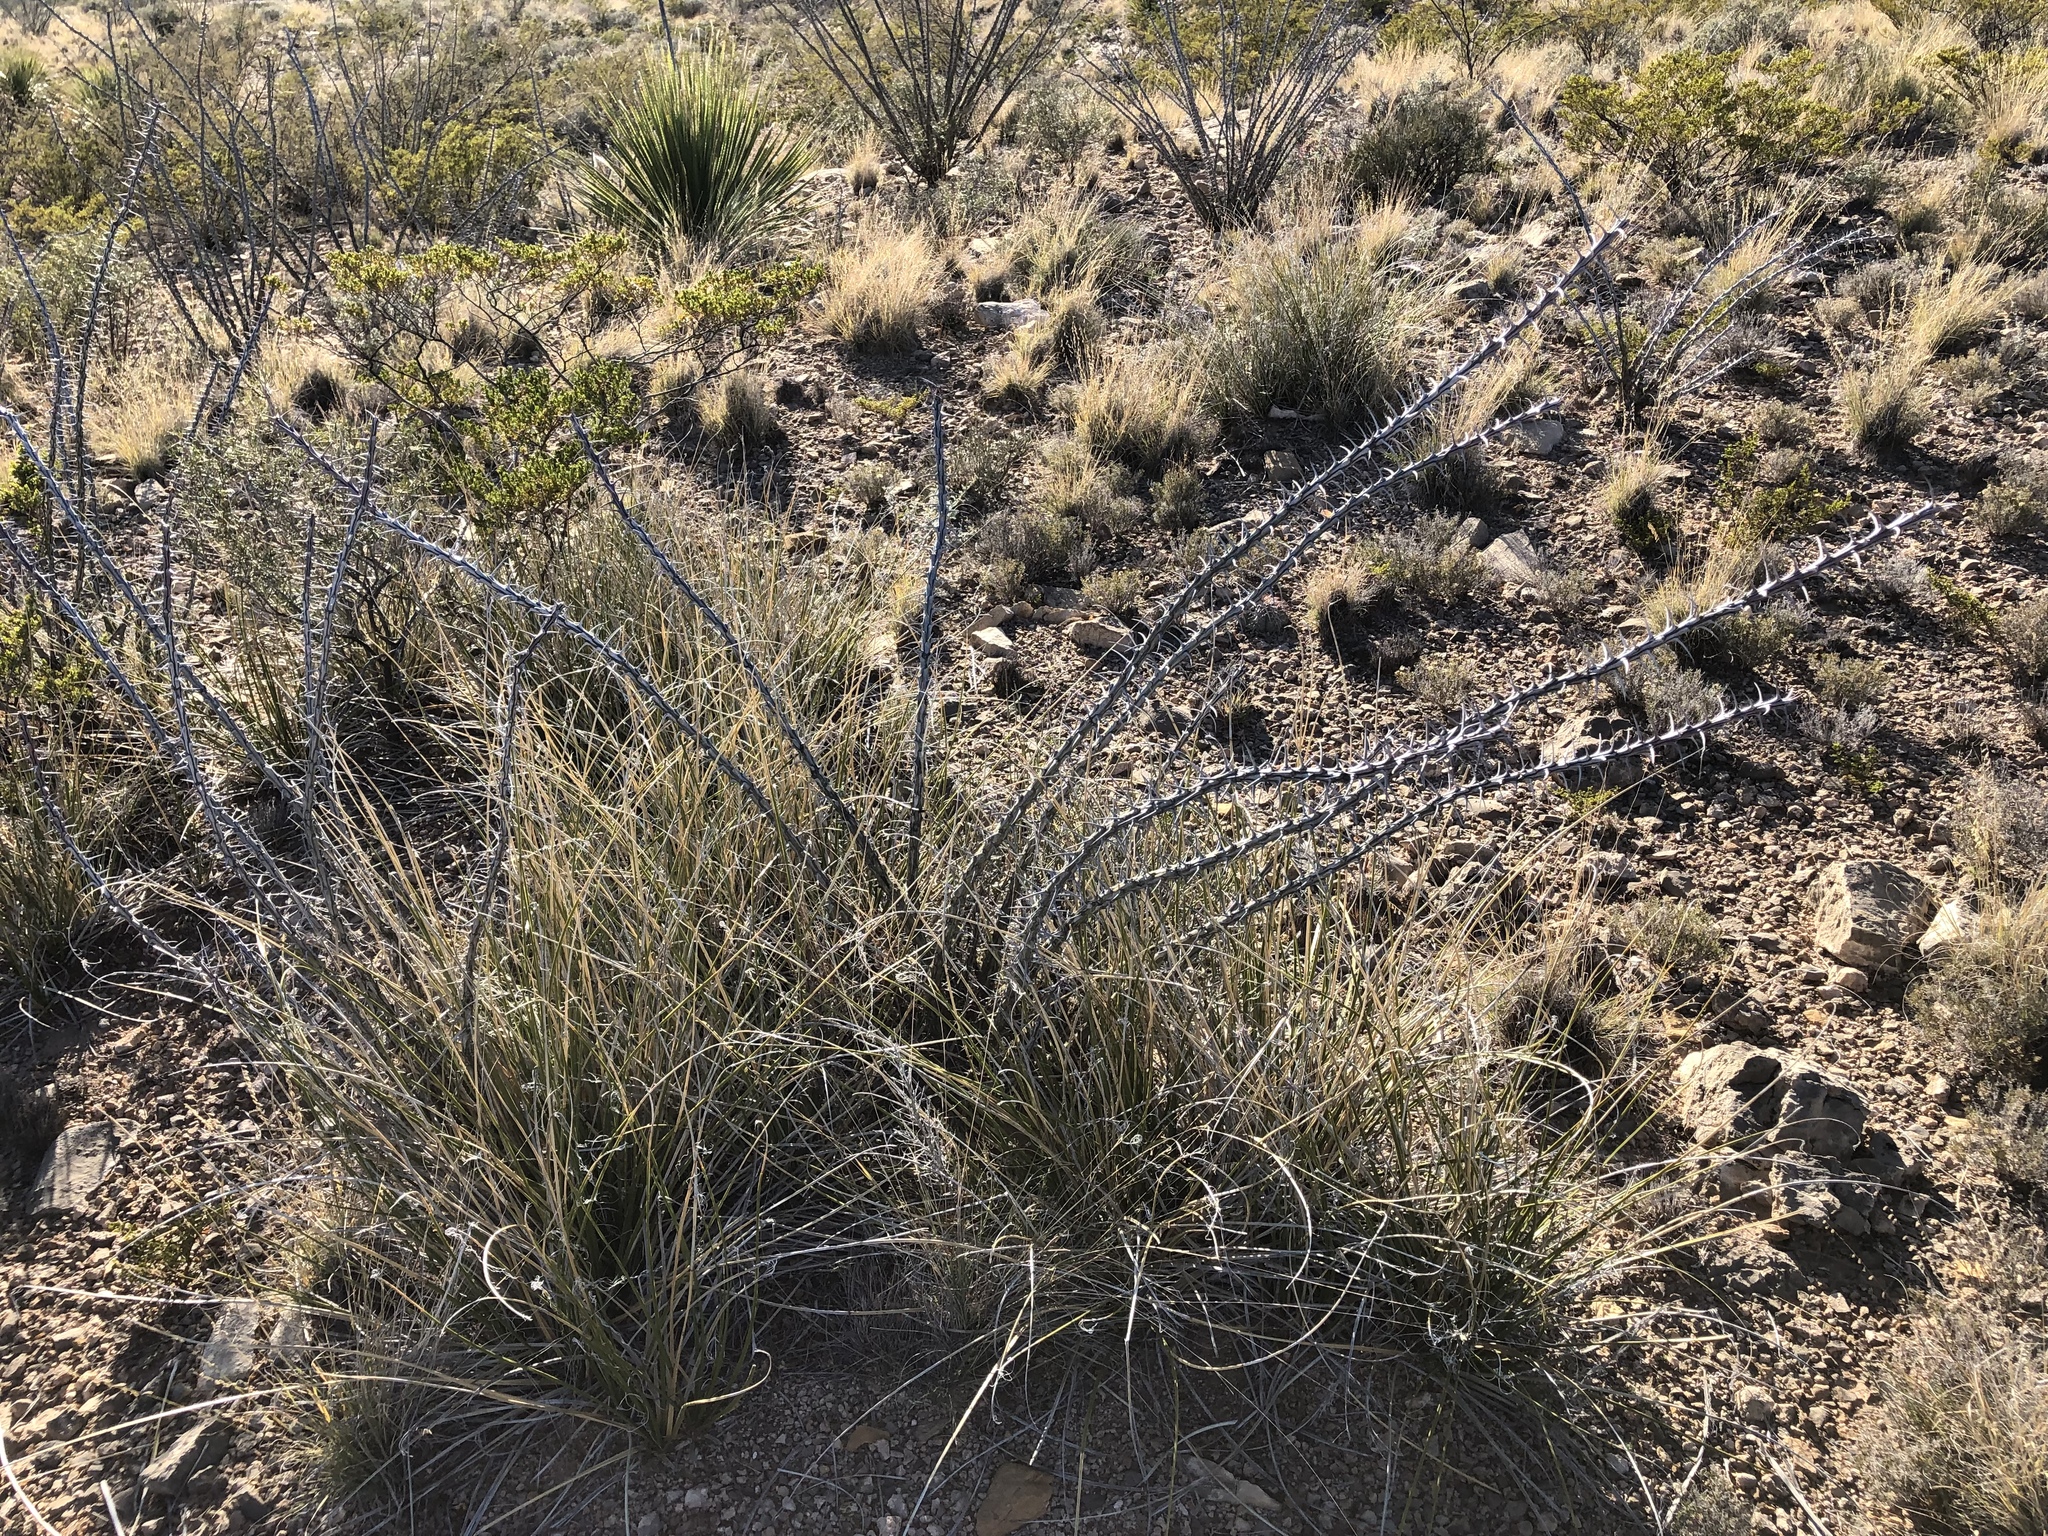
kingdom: Plantae
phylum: Tracheophyta
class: Magnoliopsida
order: Ericales
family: Fouquieriaceae
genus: Fouquieria
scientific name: Fouquieria splendens
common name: Vine-cactus
